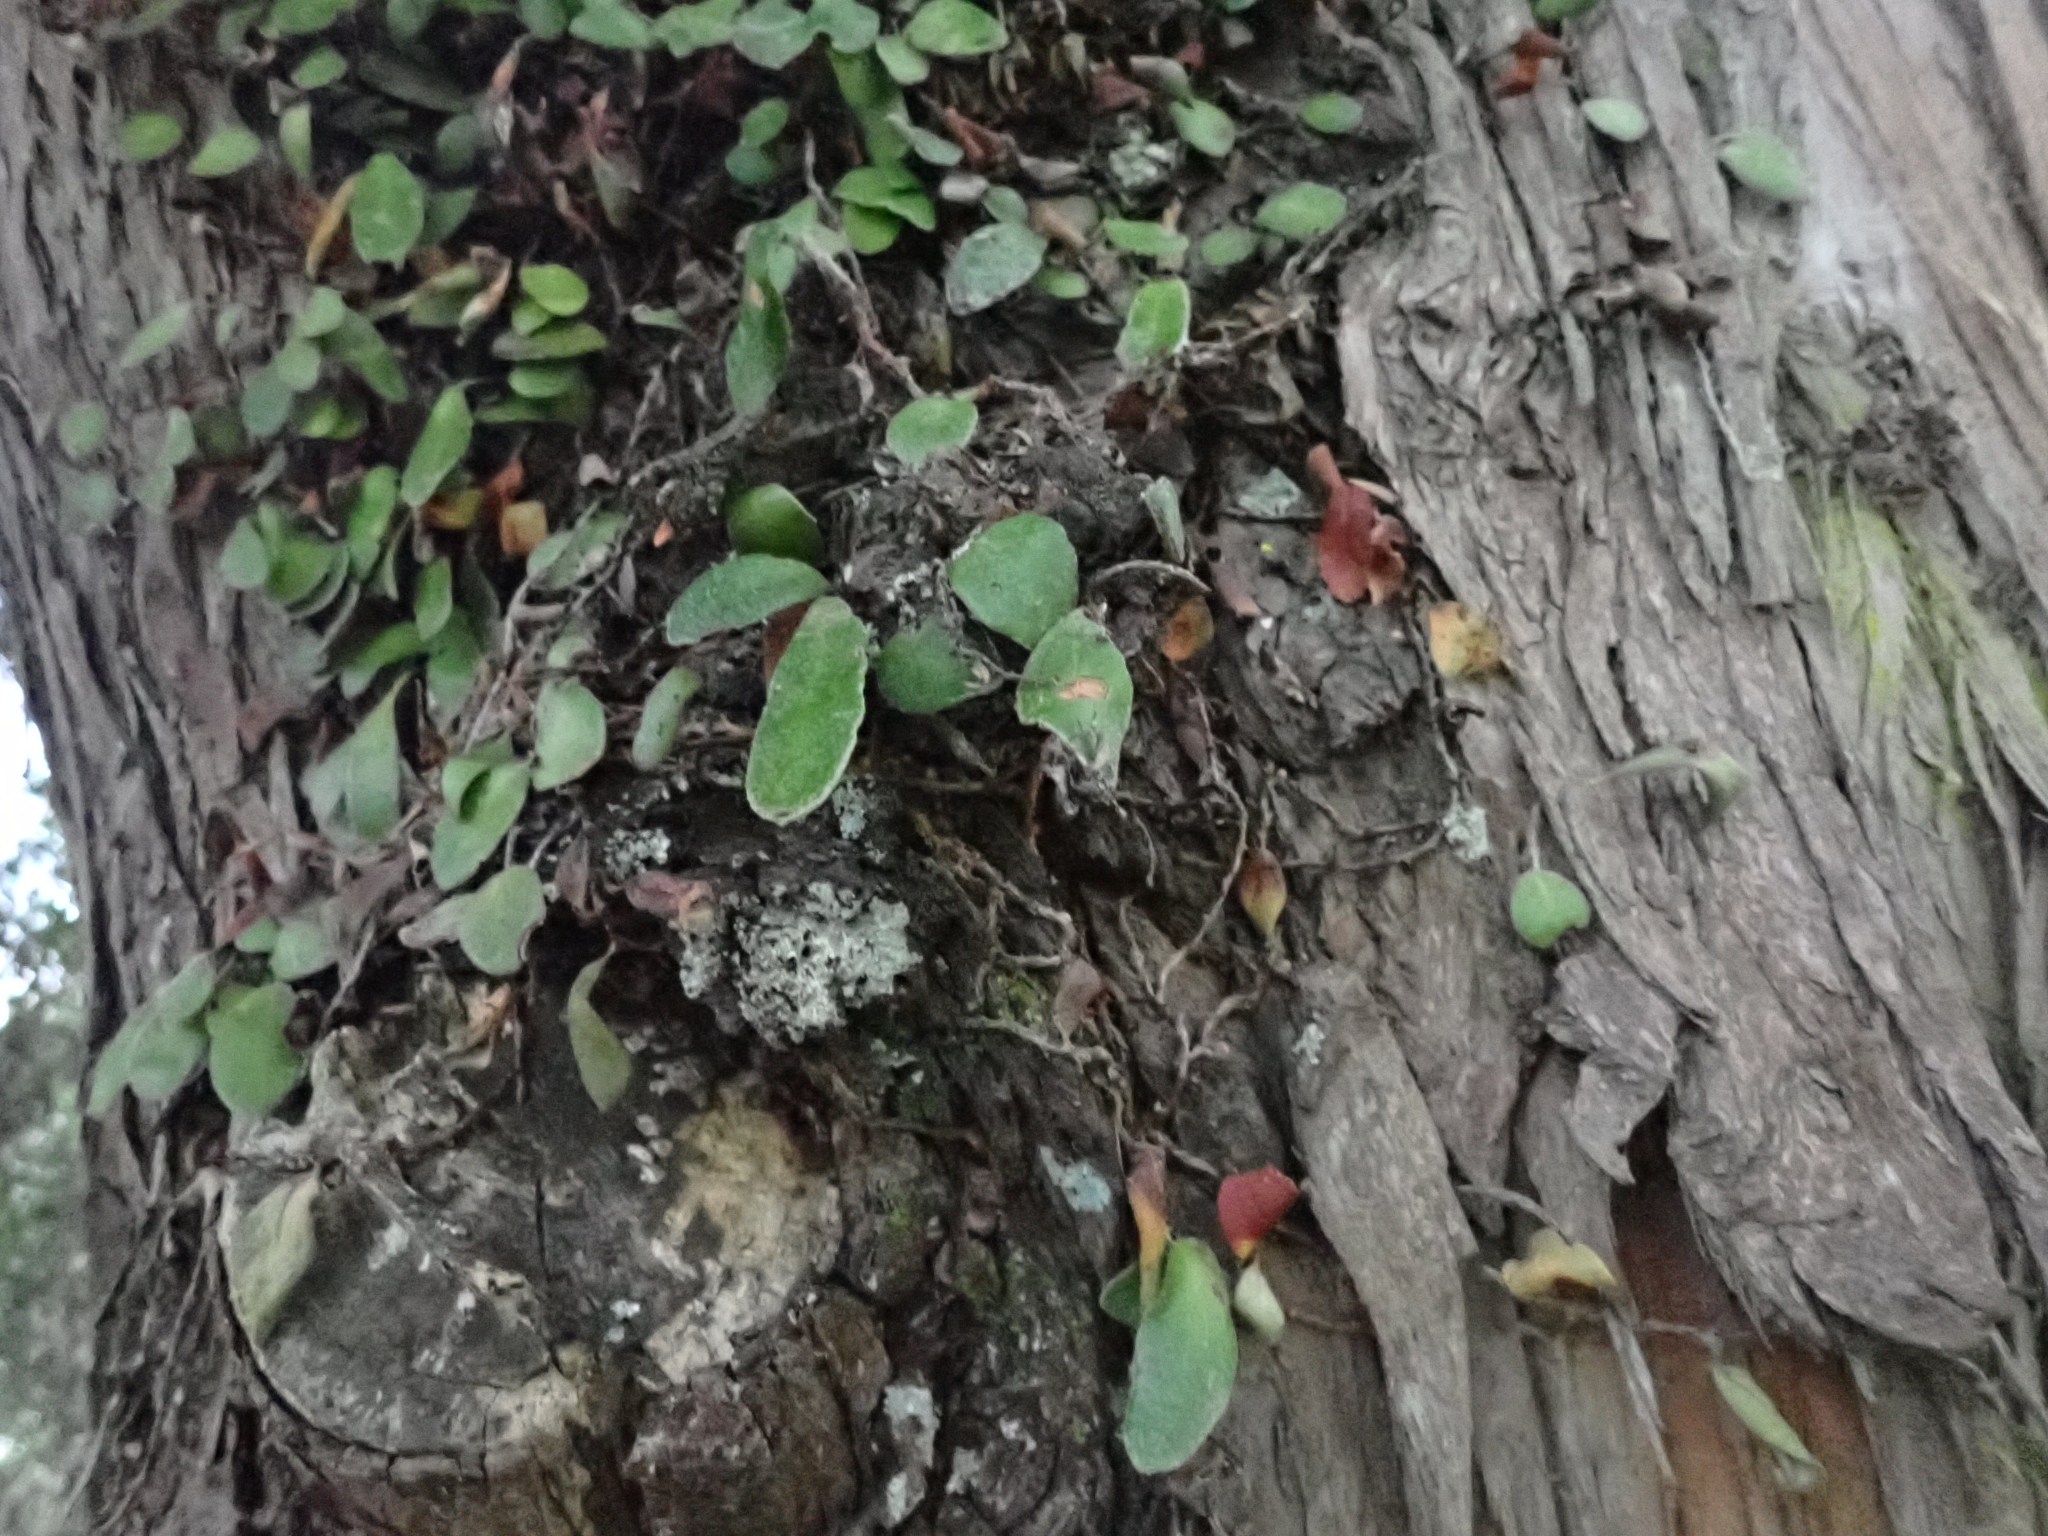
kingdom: Plantae
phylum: Tracheophyta
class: Polypodiopsida
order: Polypodiales
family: Polypodiaceae
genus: Pyrrosia
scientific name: Pyrrosia eleagnifolia
